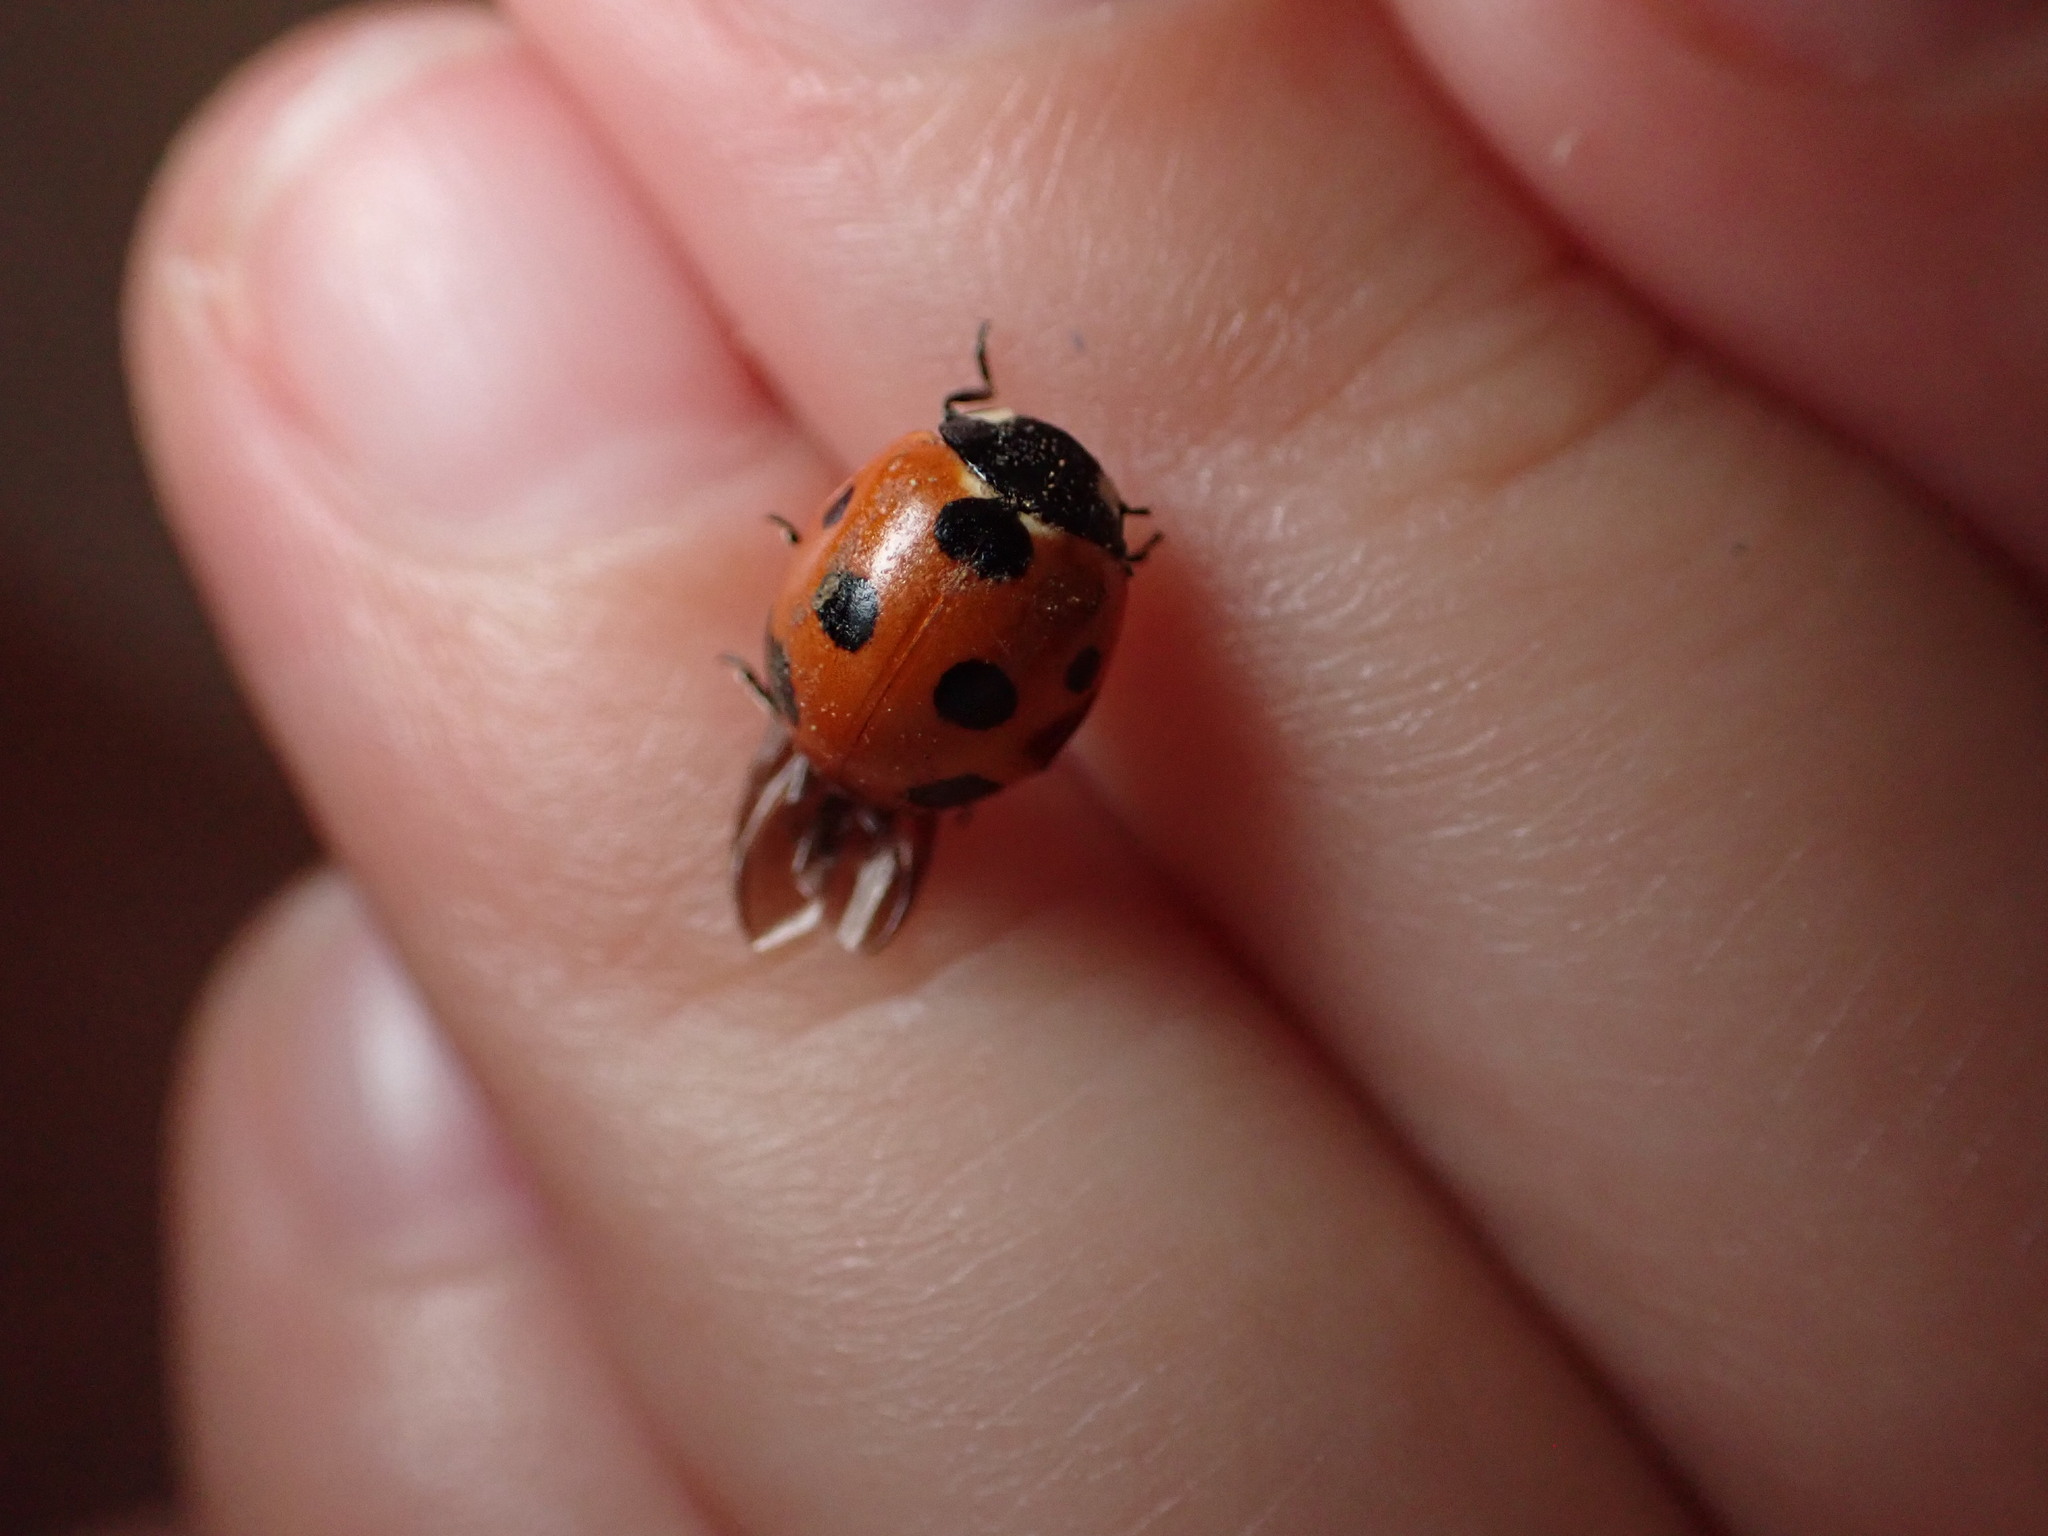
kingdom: Animalia
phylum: Arthropoda
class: Insecta
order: Coleoptera
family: Coccinellidae
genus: Coccinella
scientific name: Coccinella algerica
